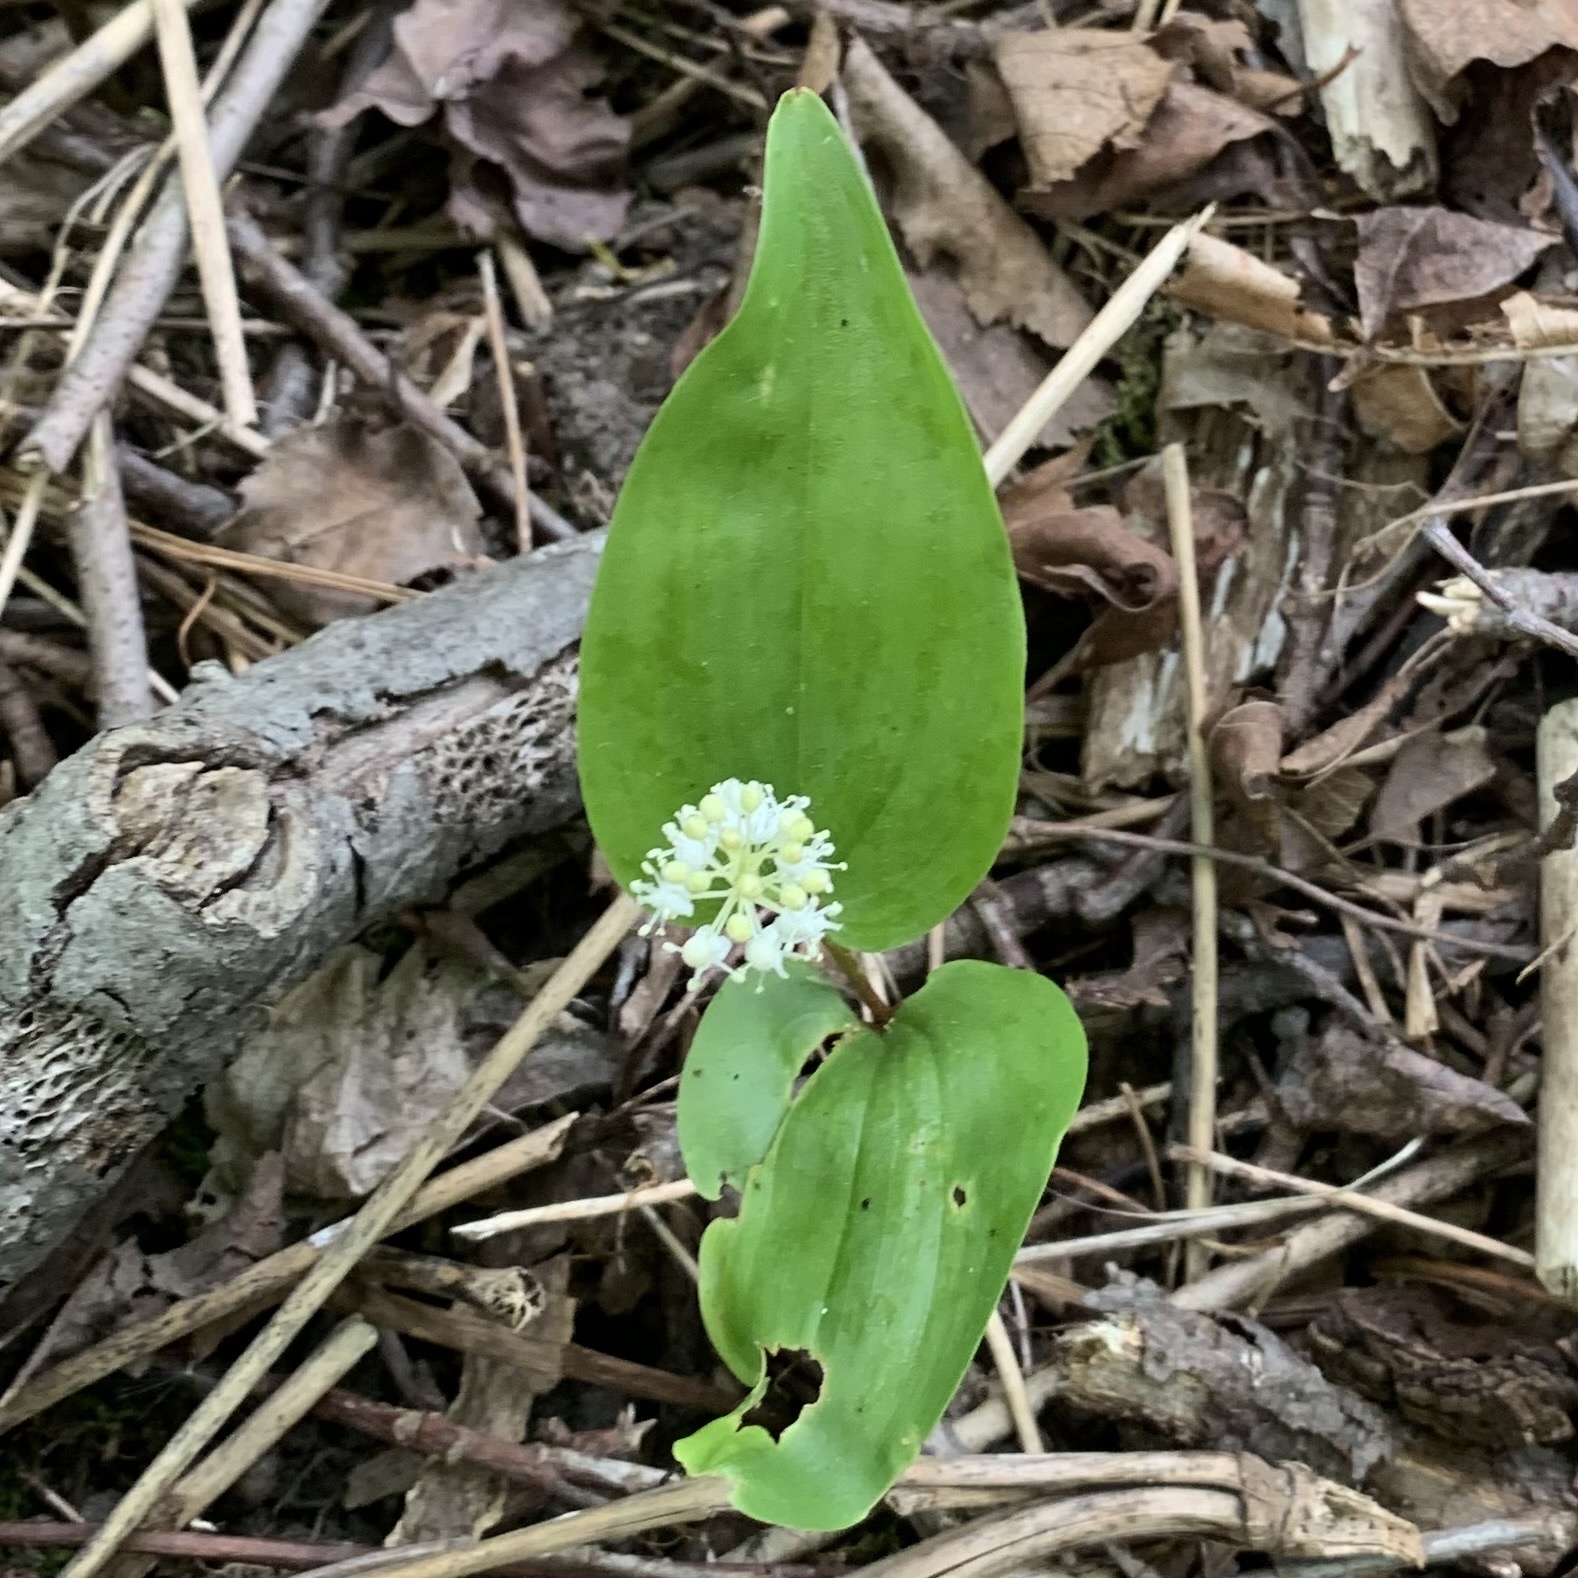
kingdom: Plantae
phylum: Tracheophyta
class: Liliopsida
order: Asparagales
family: Asparagaceae
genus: Maianthemum
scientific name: Maianthemum canadense
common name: False lily-of-the-valley
